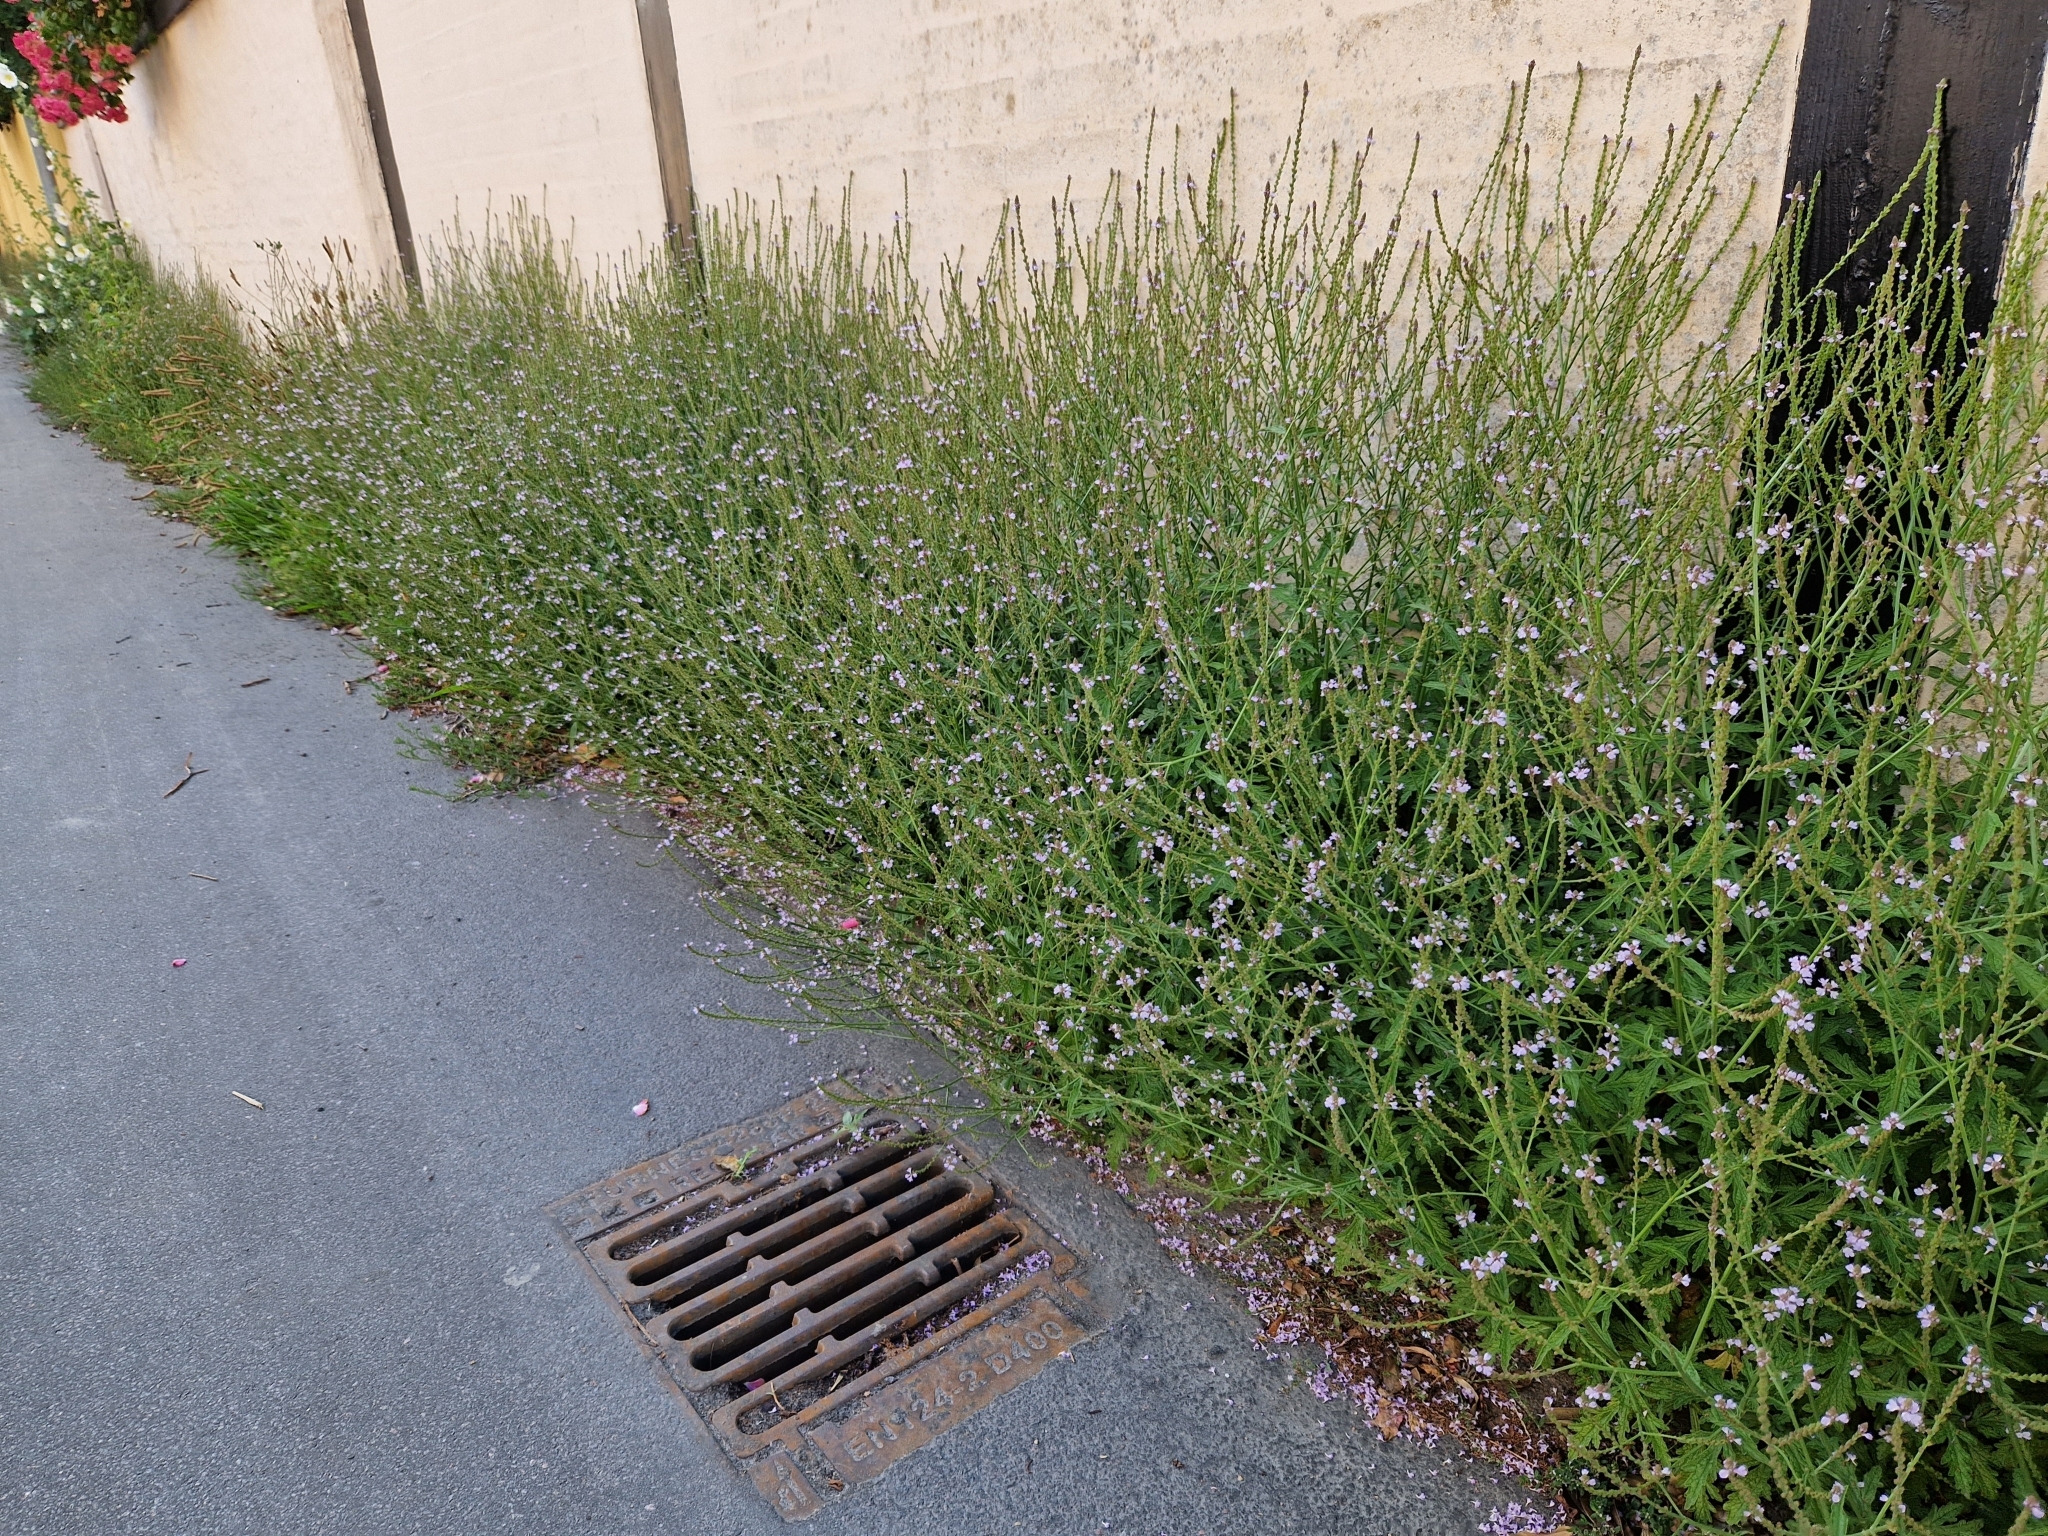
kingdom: Plantae
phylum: Tracheophyta
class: Magnoliopsida
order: Lamiales
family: Verbenaceae
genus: Verbena
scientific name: Verbena officinalis
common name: Vervain
